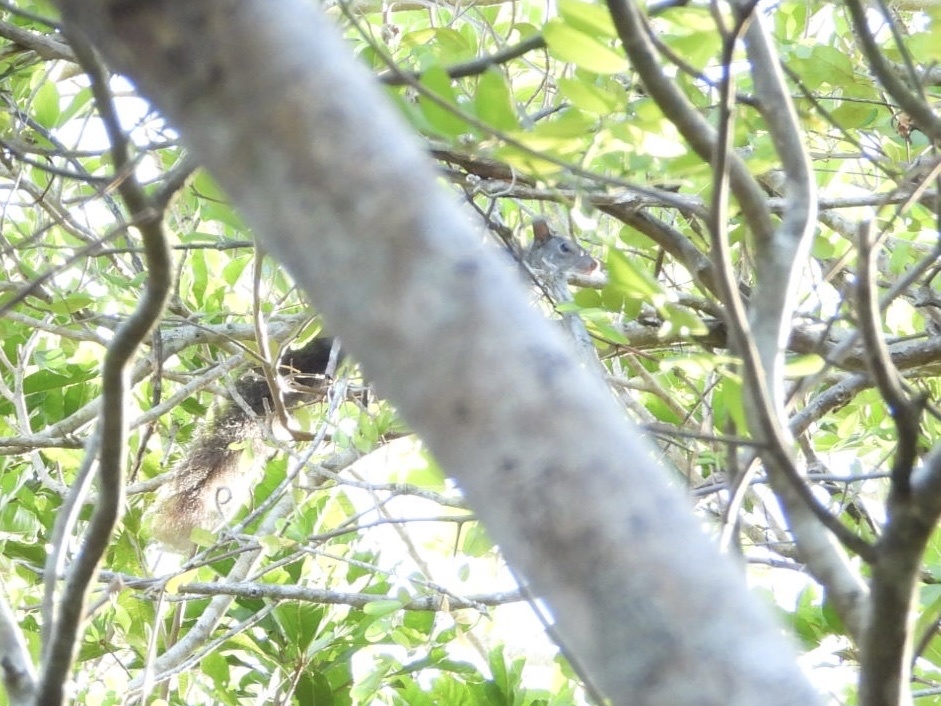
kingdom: Animalia
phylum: Chordata
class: Mammalia
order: Rodentia
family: Sciuridae
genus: Sciurus
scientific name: Sciurus yucatanensis
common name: Yucatan squirrel
